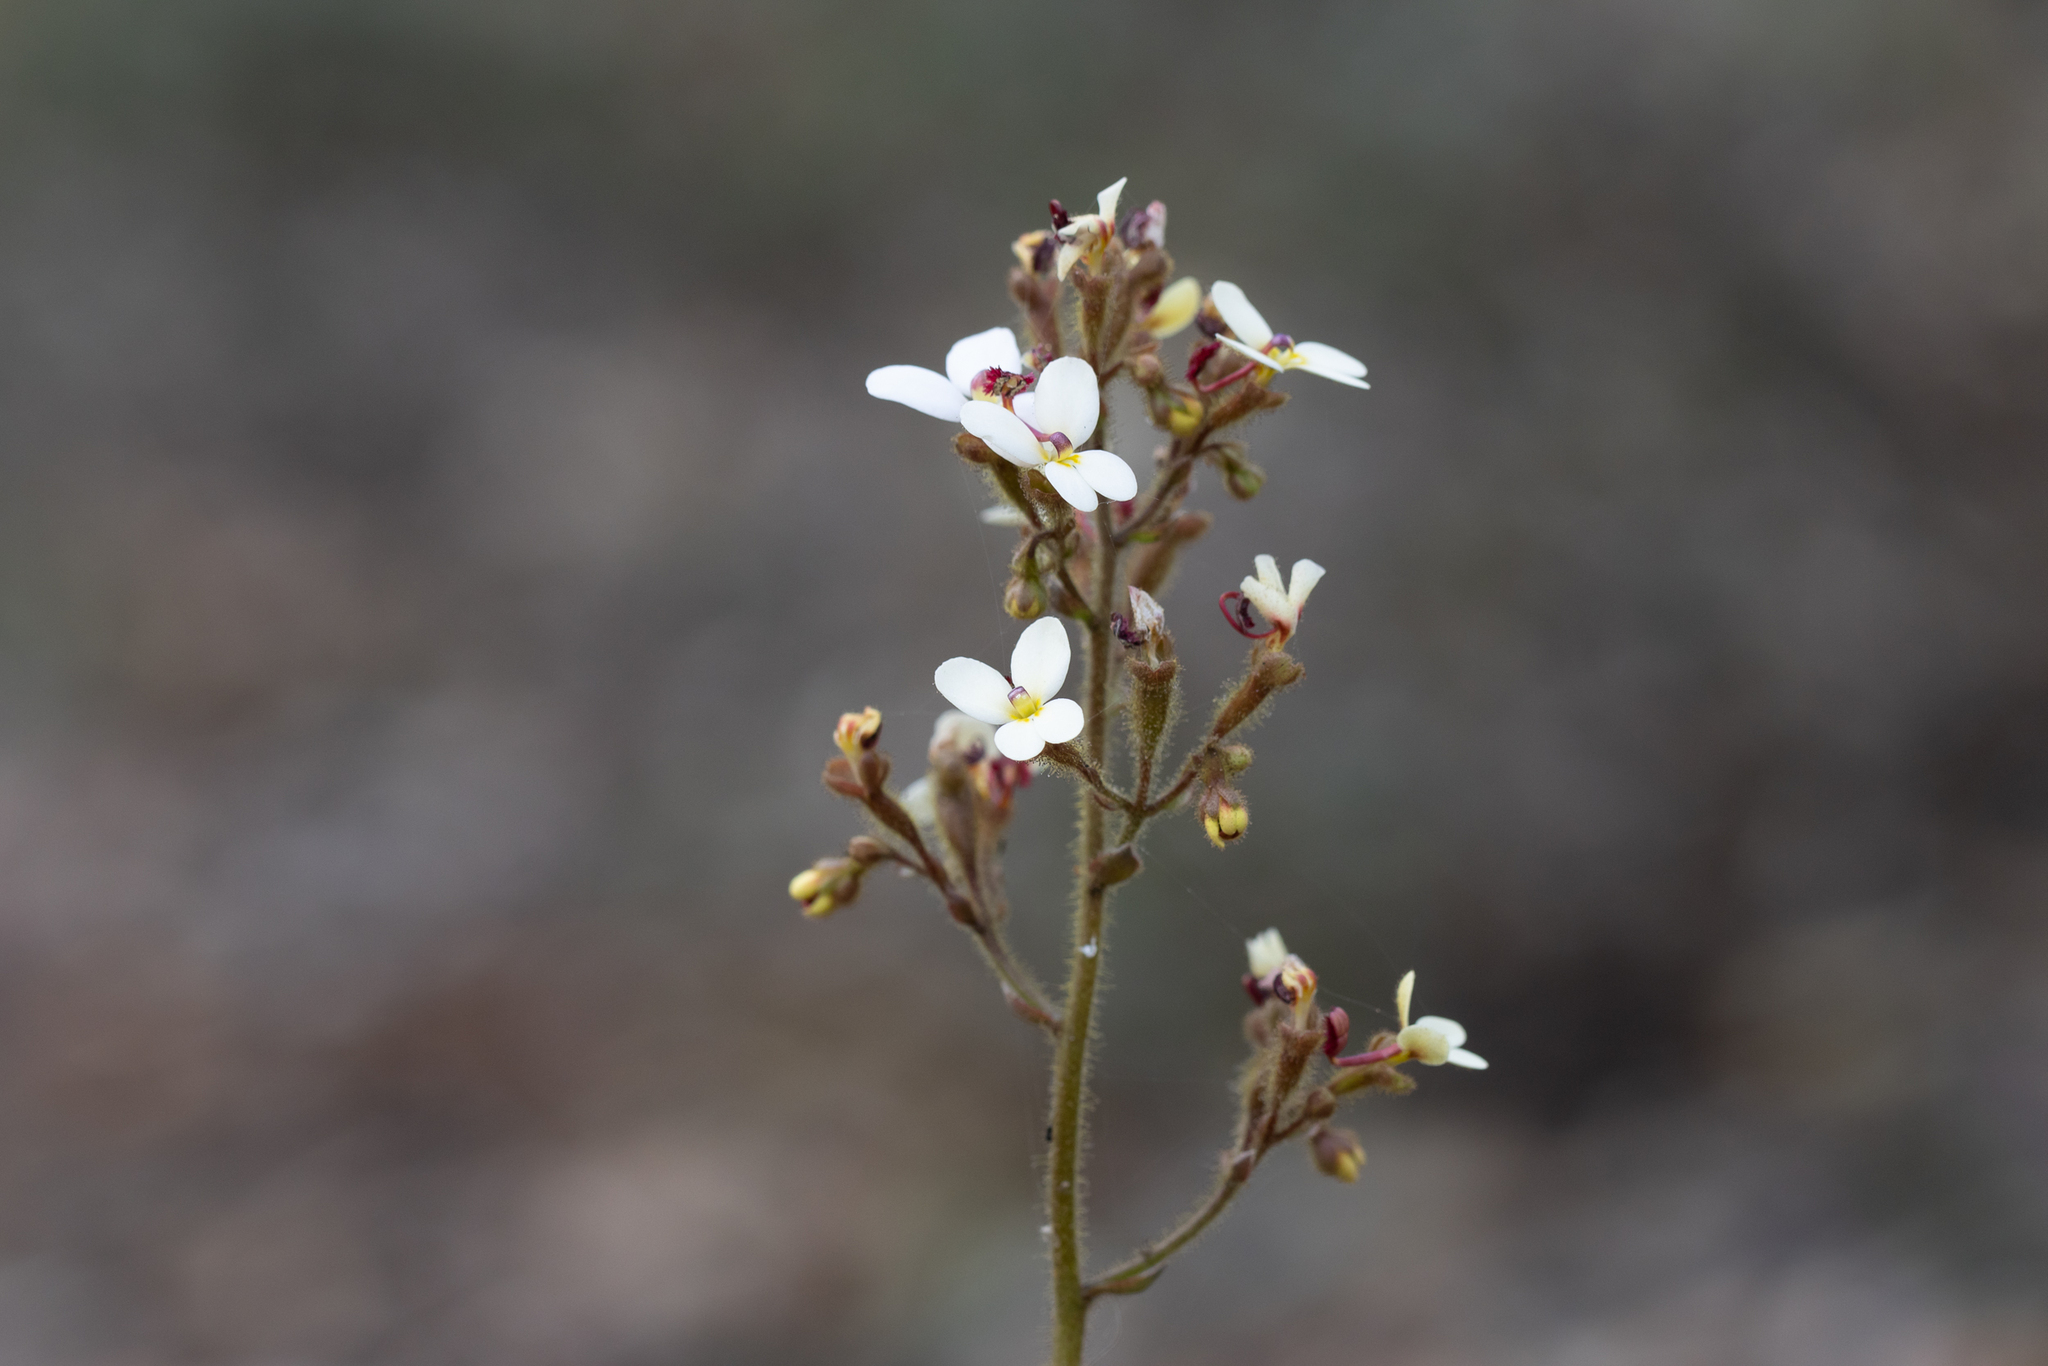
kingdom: Plantae
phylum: Tracheophyta
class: Magnoliopsida
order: Asterales
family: Stylidiaceae
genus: Stylidium
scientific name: Stylidium ciliatum
